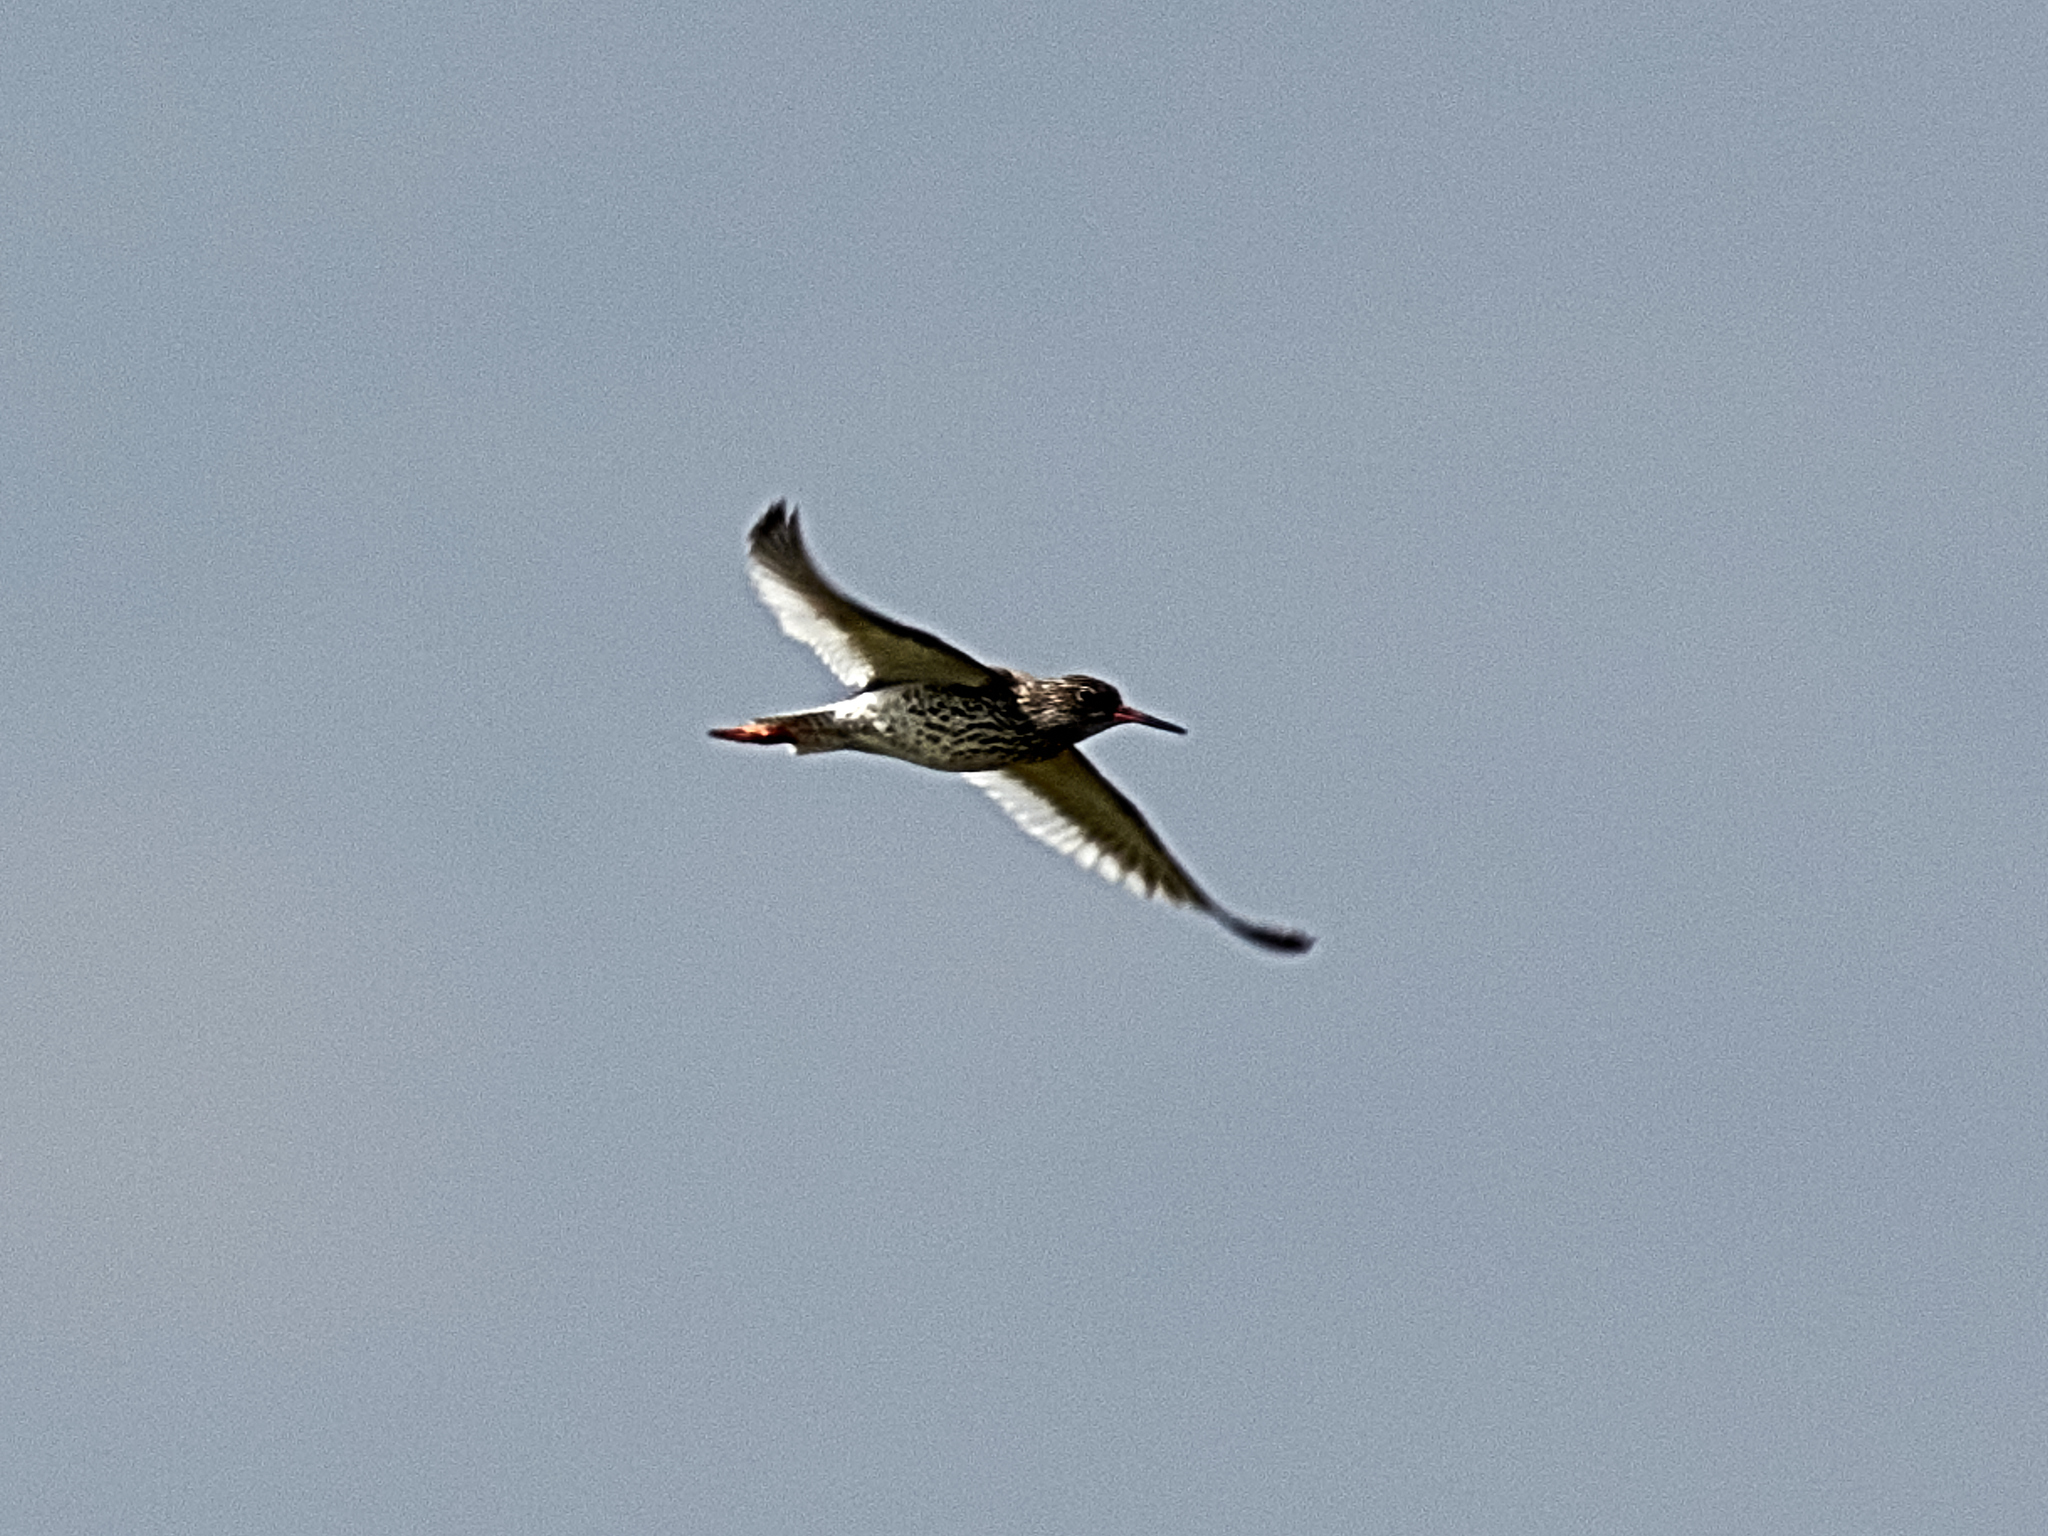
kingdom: Animalia
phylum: Chordata
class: Aves
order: Charadriiformes
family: Scolopacidae
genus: Tringa
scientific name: Tringa totanus
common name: Common redshank
